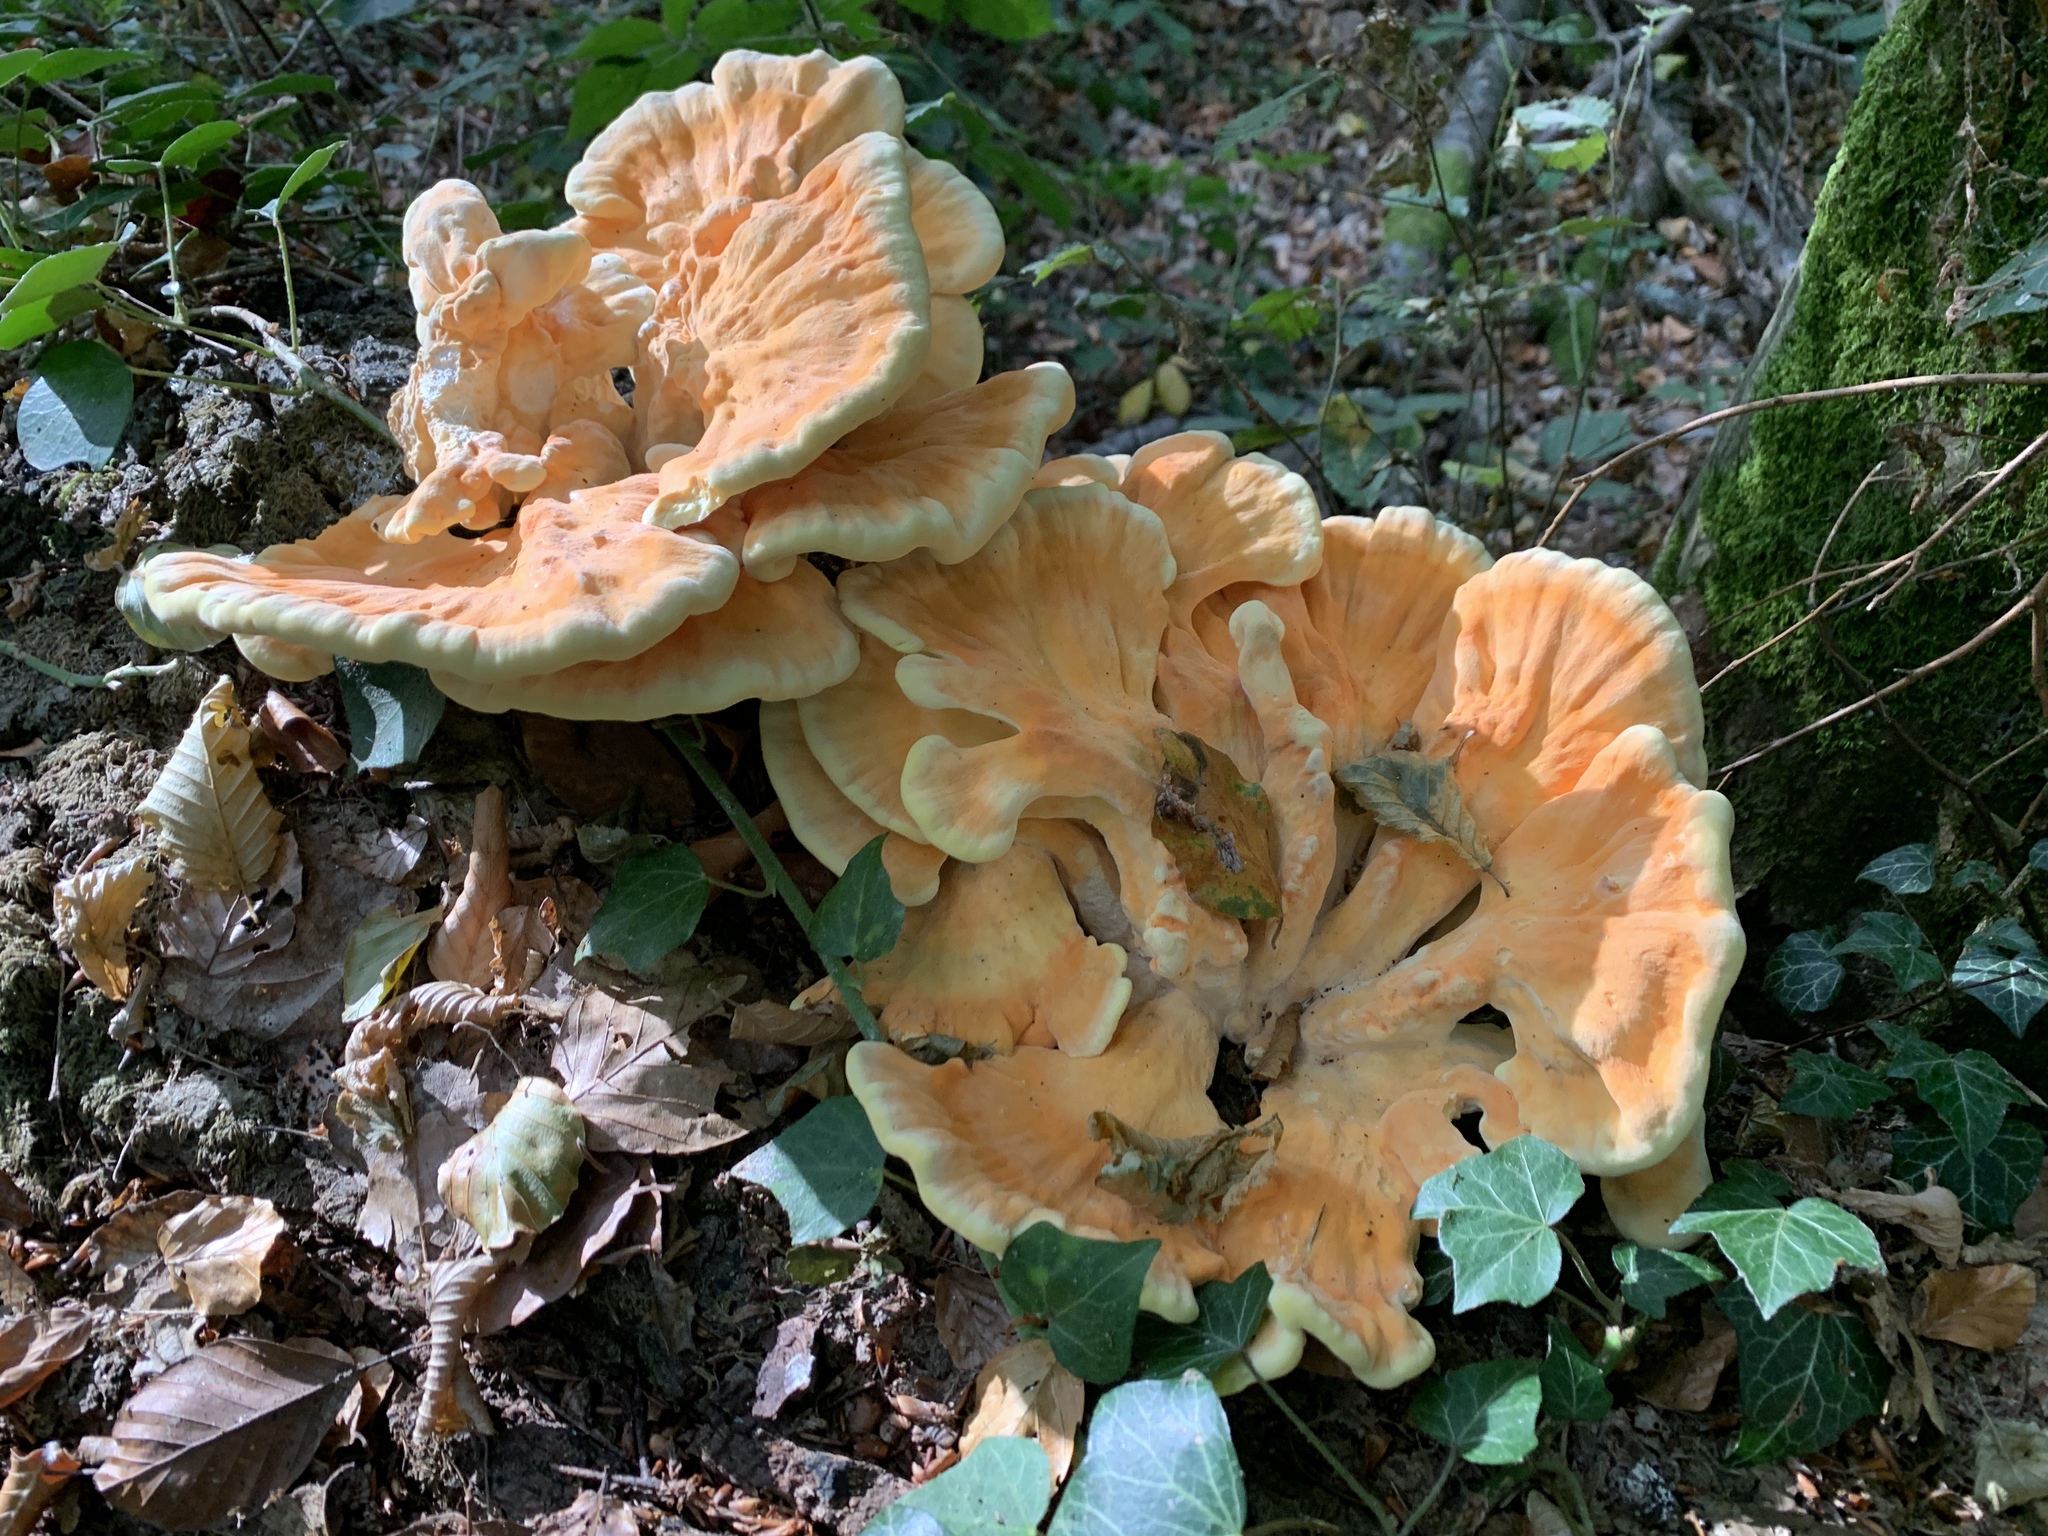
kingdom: Fungi
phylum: Basidiomycota
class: Agaricomycetes
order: Polyporales
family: Laetiporaceae
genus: Laetiporus
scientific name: Laetiporus sulphureus
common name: Chicken of the woods
